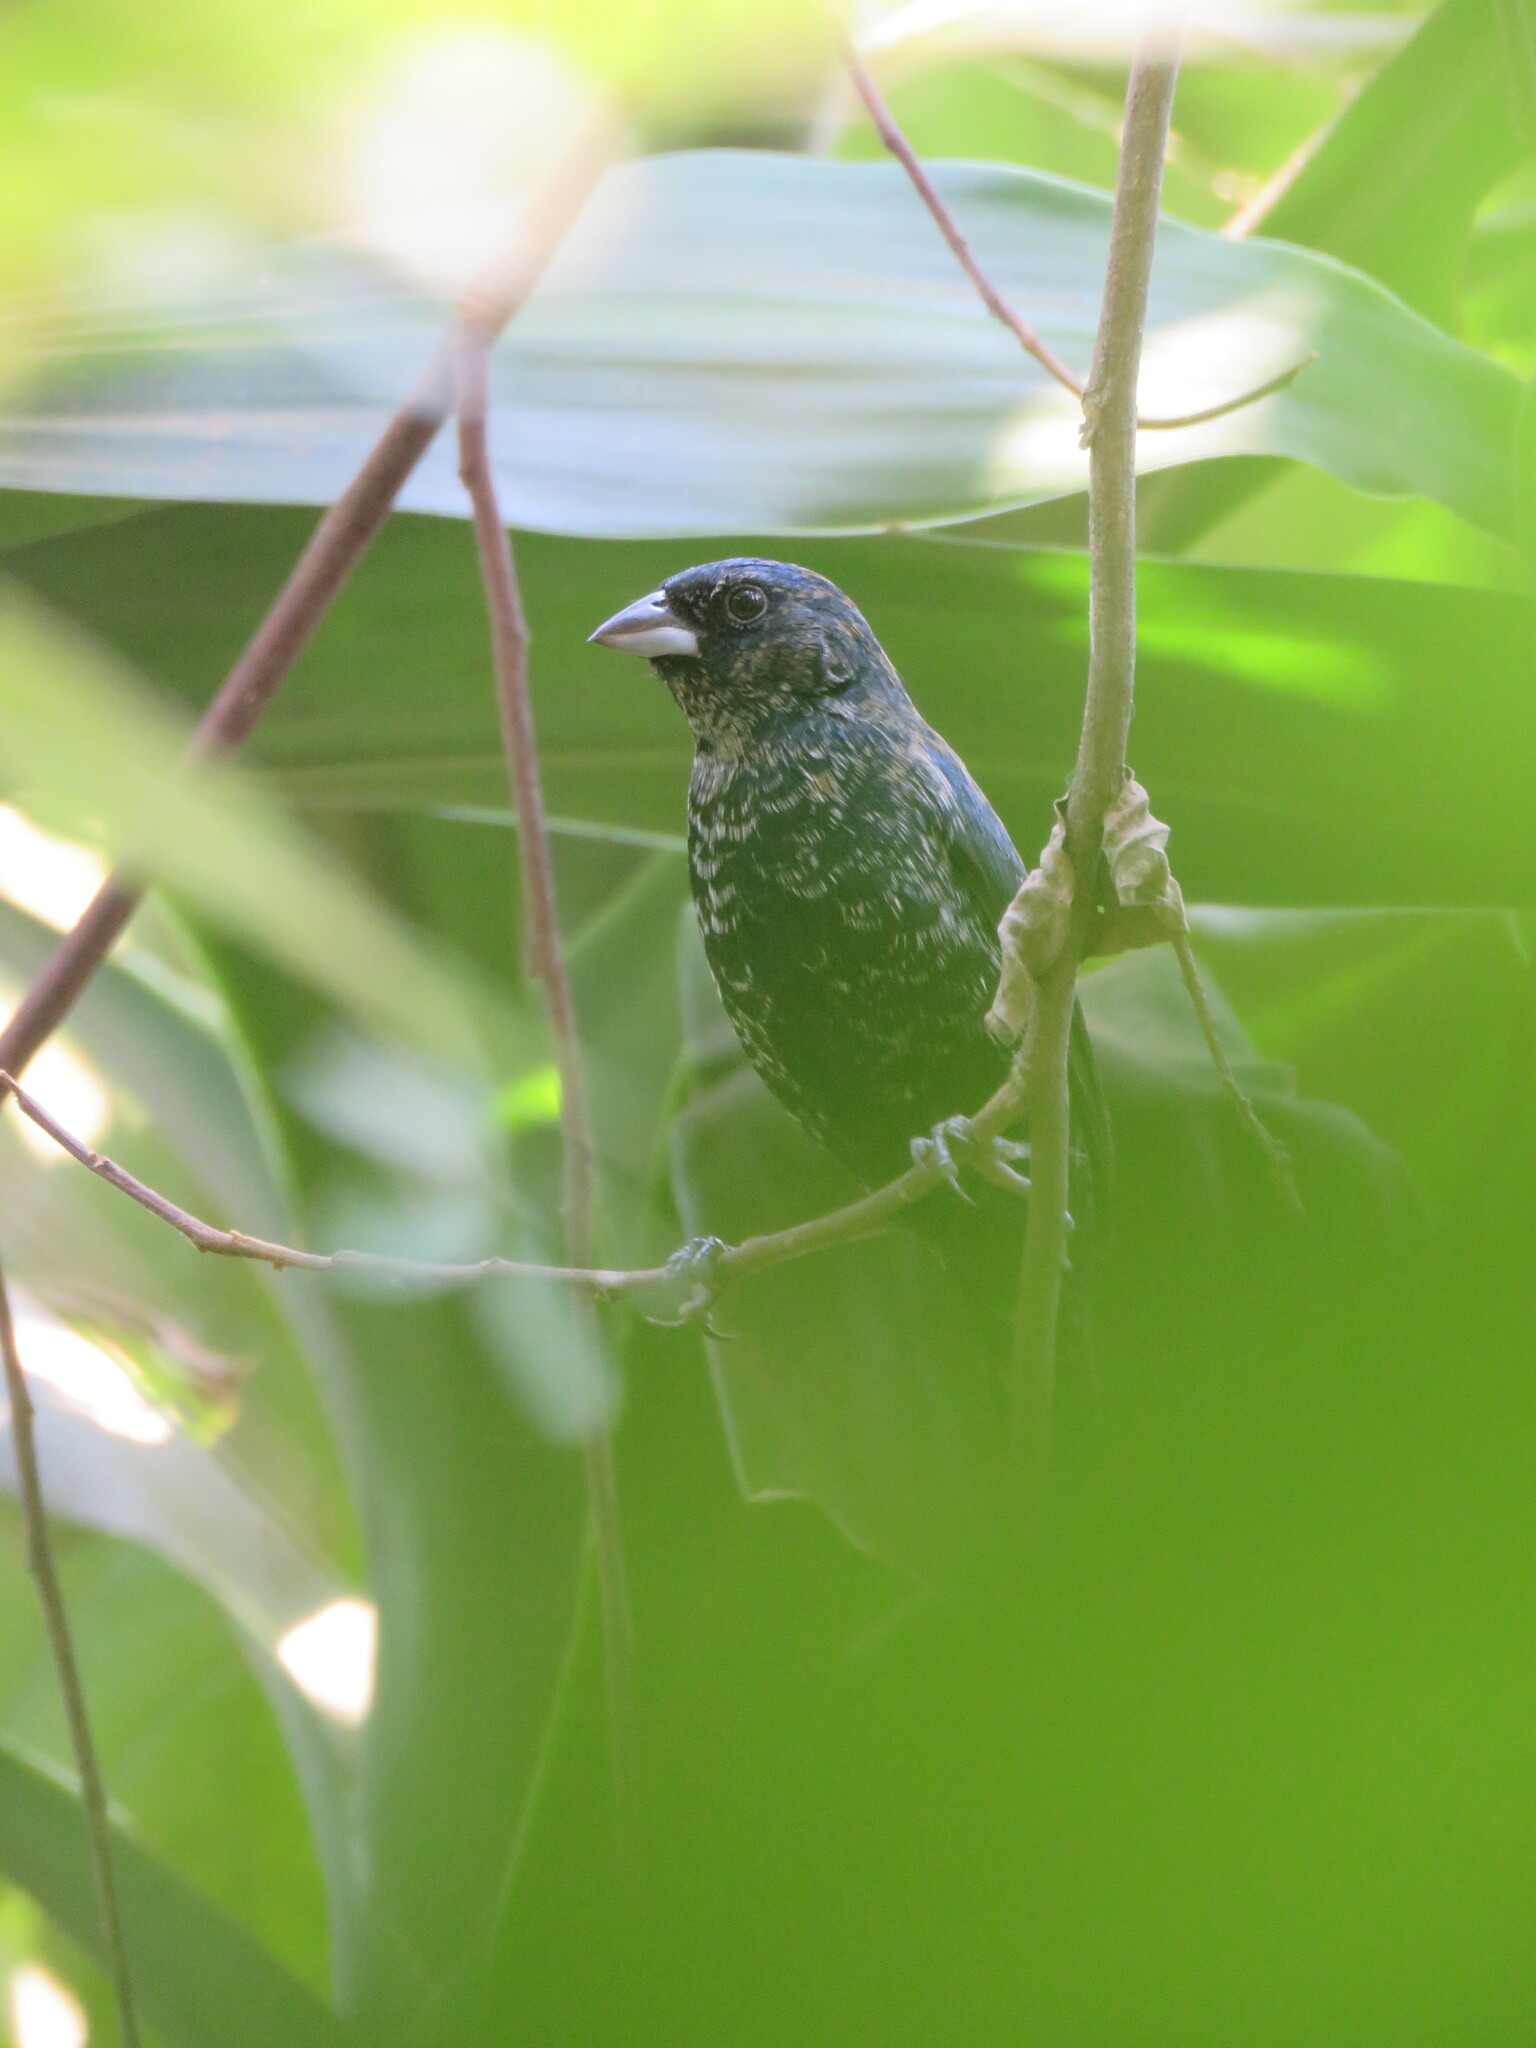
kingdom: Animalia
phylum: Chordata
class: Aves
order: Passeriformes
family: Thraupidae
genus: Volatinia
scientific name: Volatinia jacarina
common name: Blue-black grassquit
